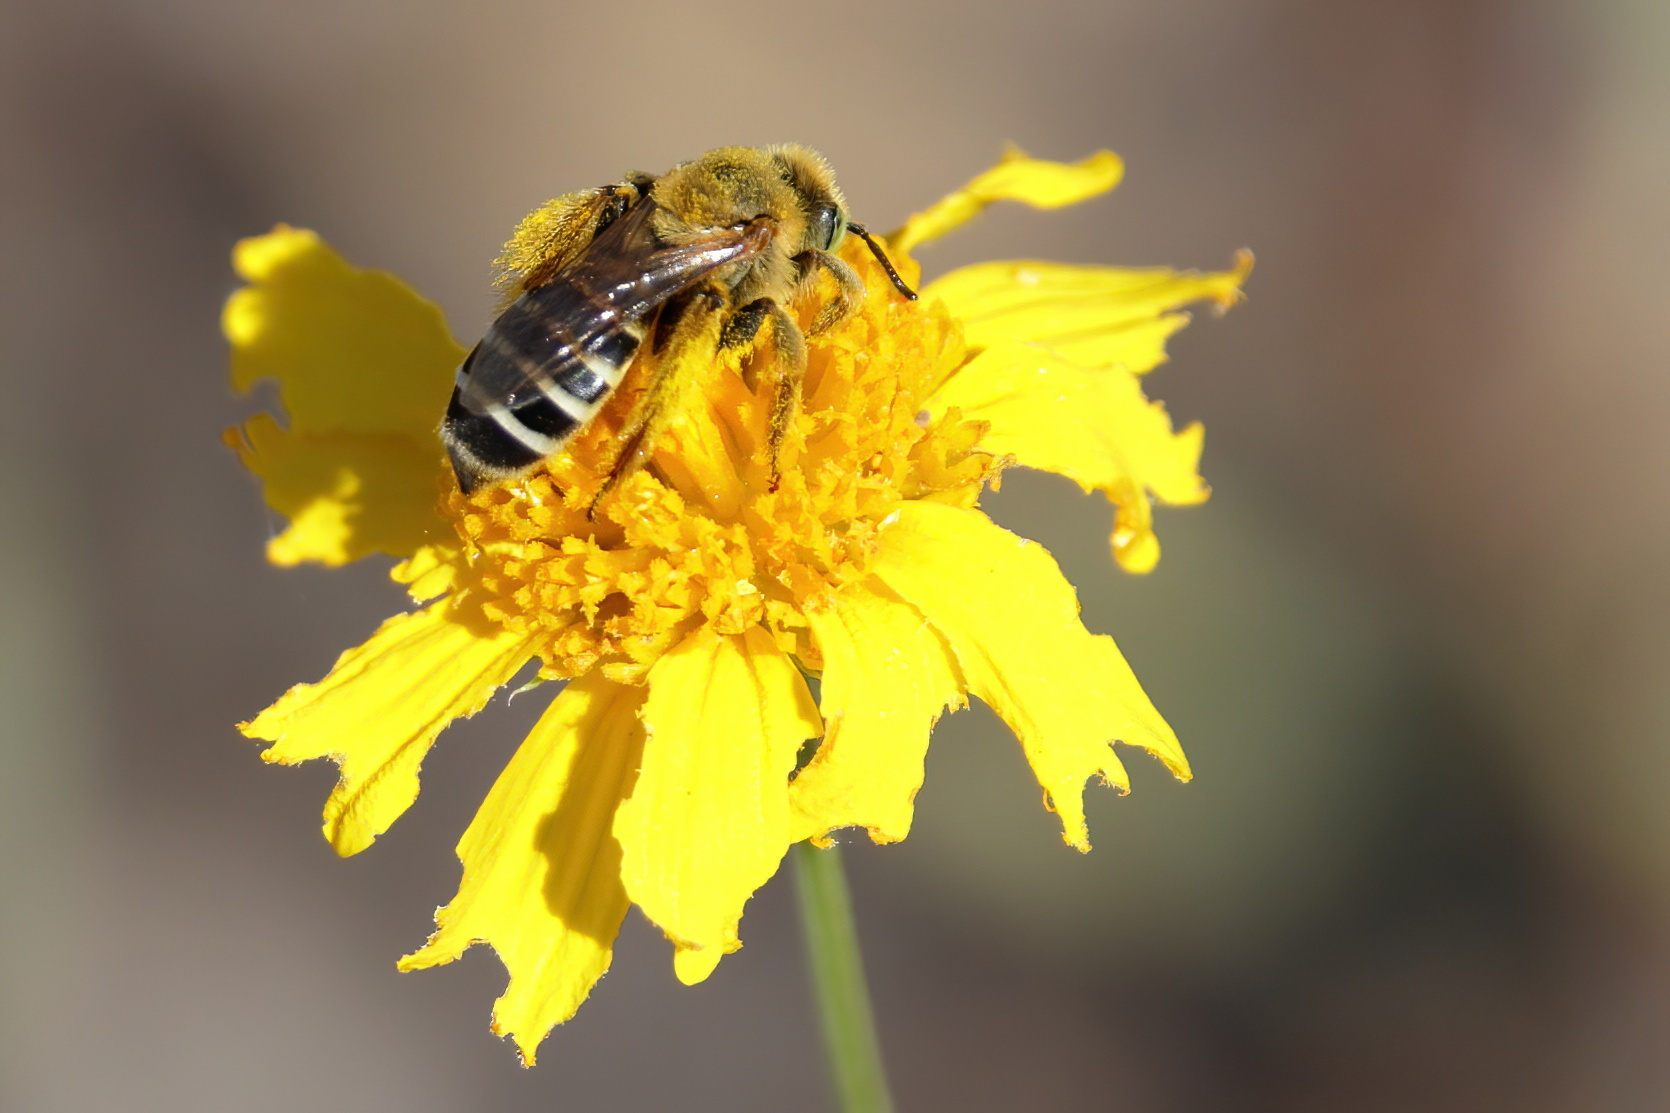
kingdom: Animalia
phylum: Arthropoda
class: Insecta
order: Hymenoptera
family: Melittidae
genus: Hesperapis
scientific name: Hesperapis oraria
